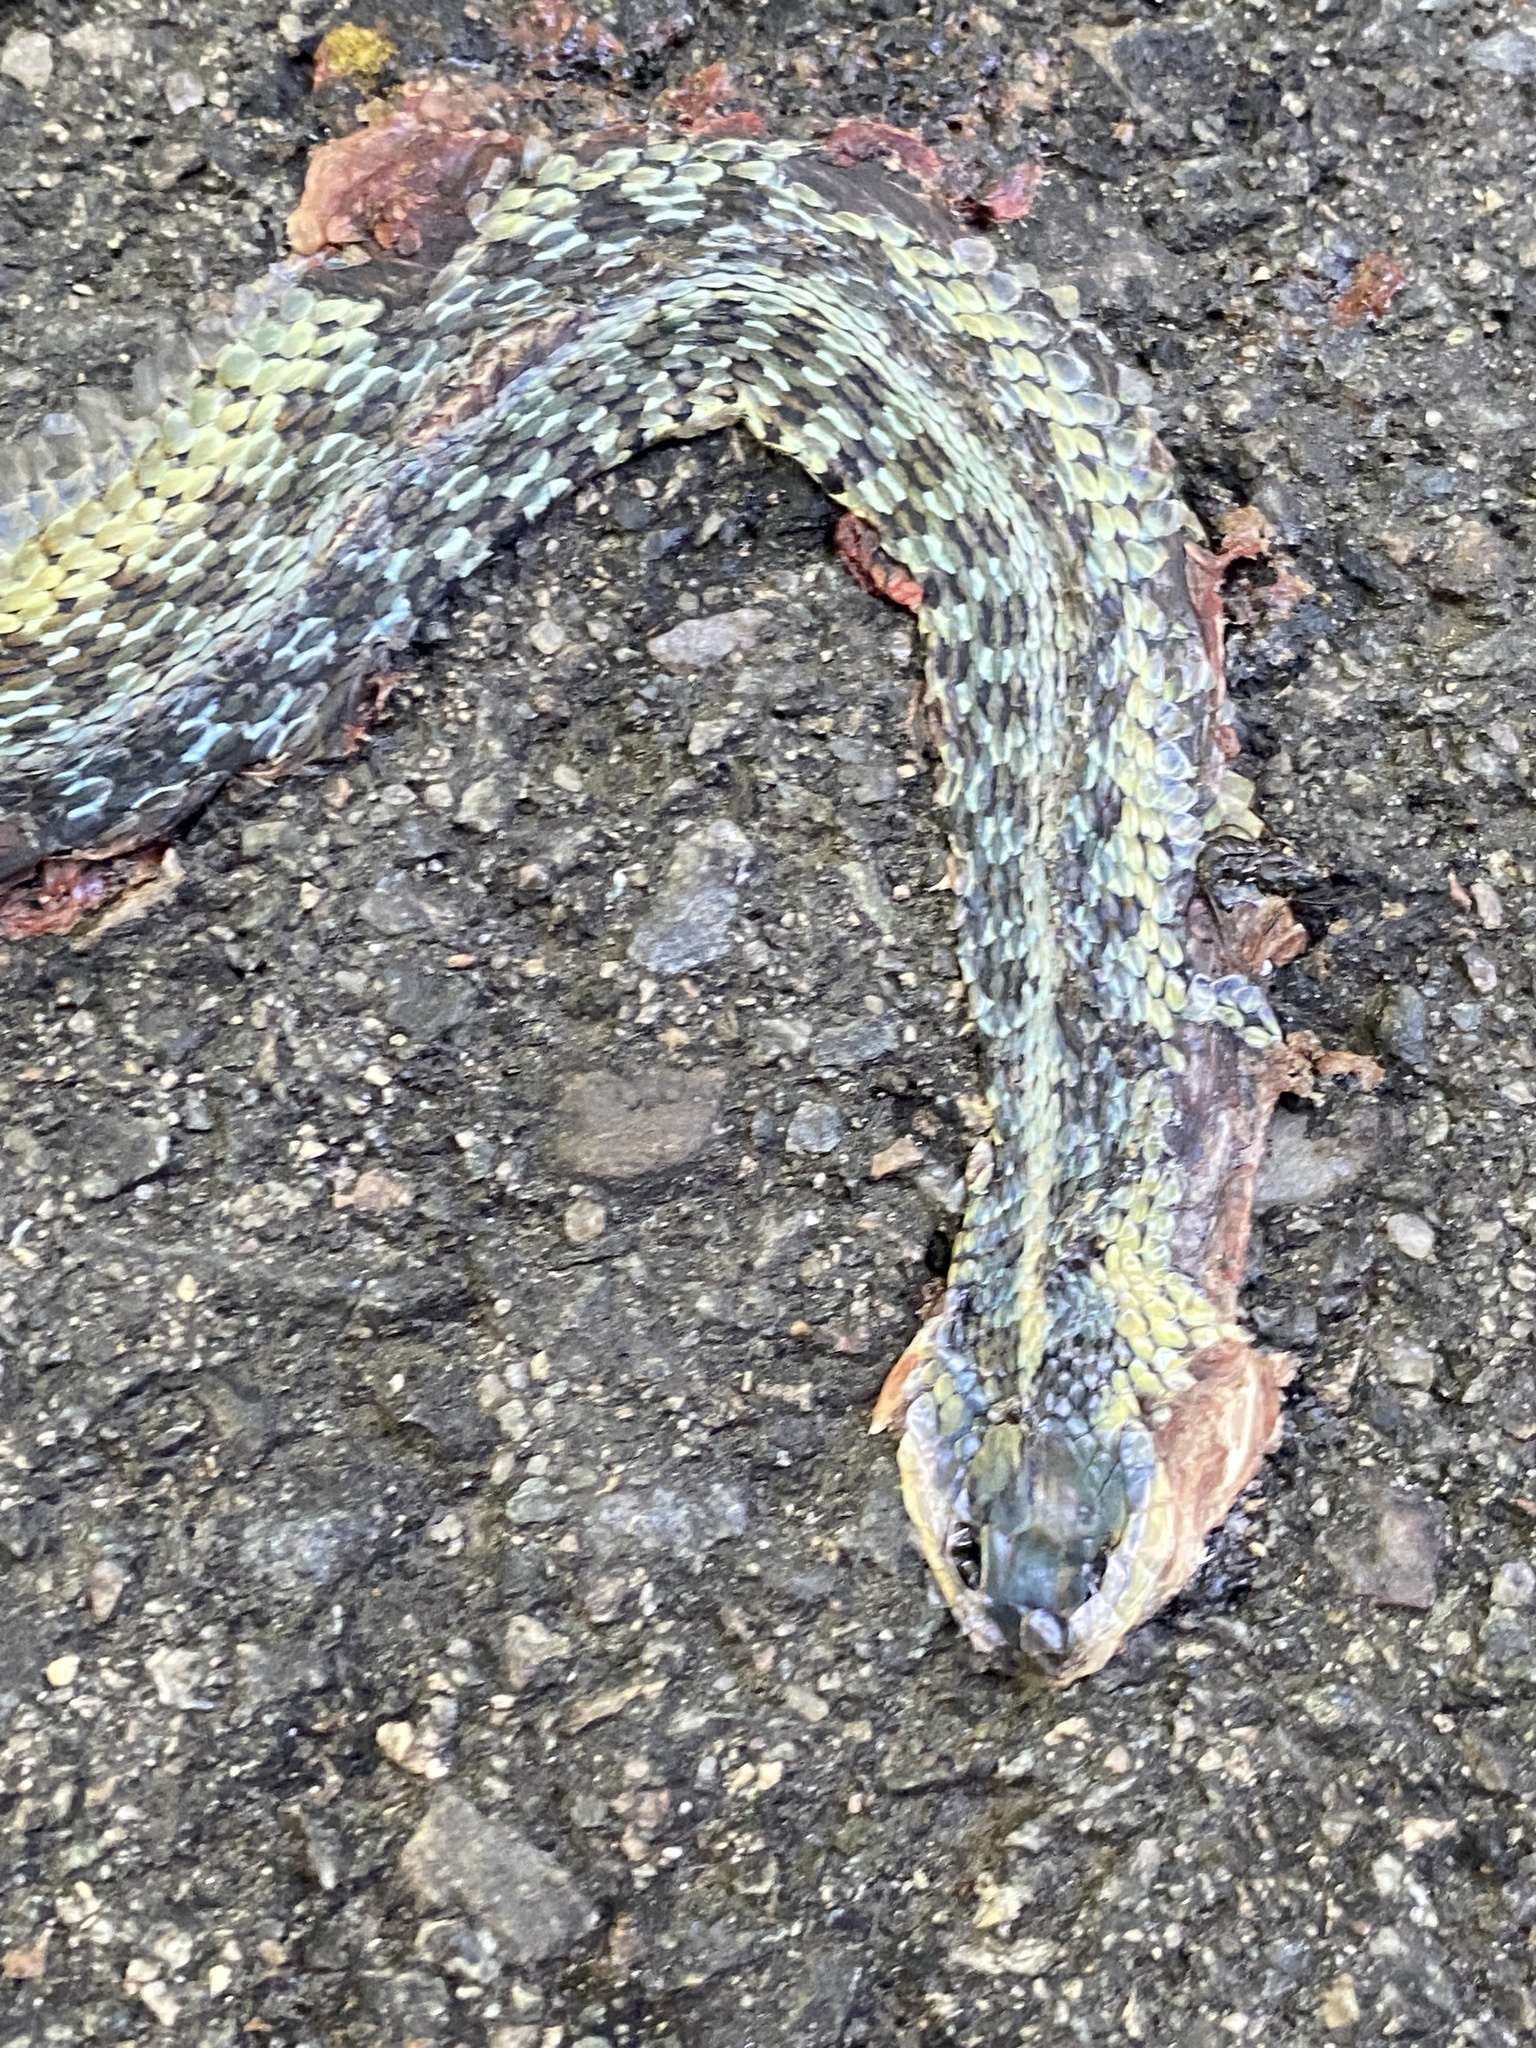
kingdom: Animalia
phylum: Chordata
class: Squamata
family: Colubridae
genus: Thamnophis
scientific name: Thamnophis sirtalis
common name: Common garter snake
